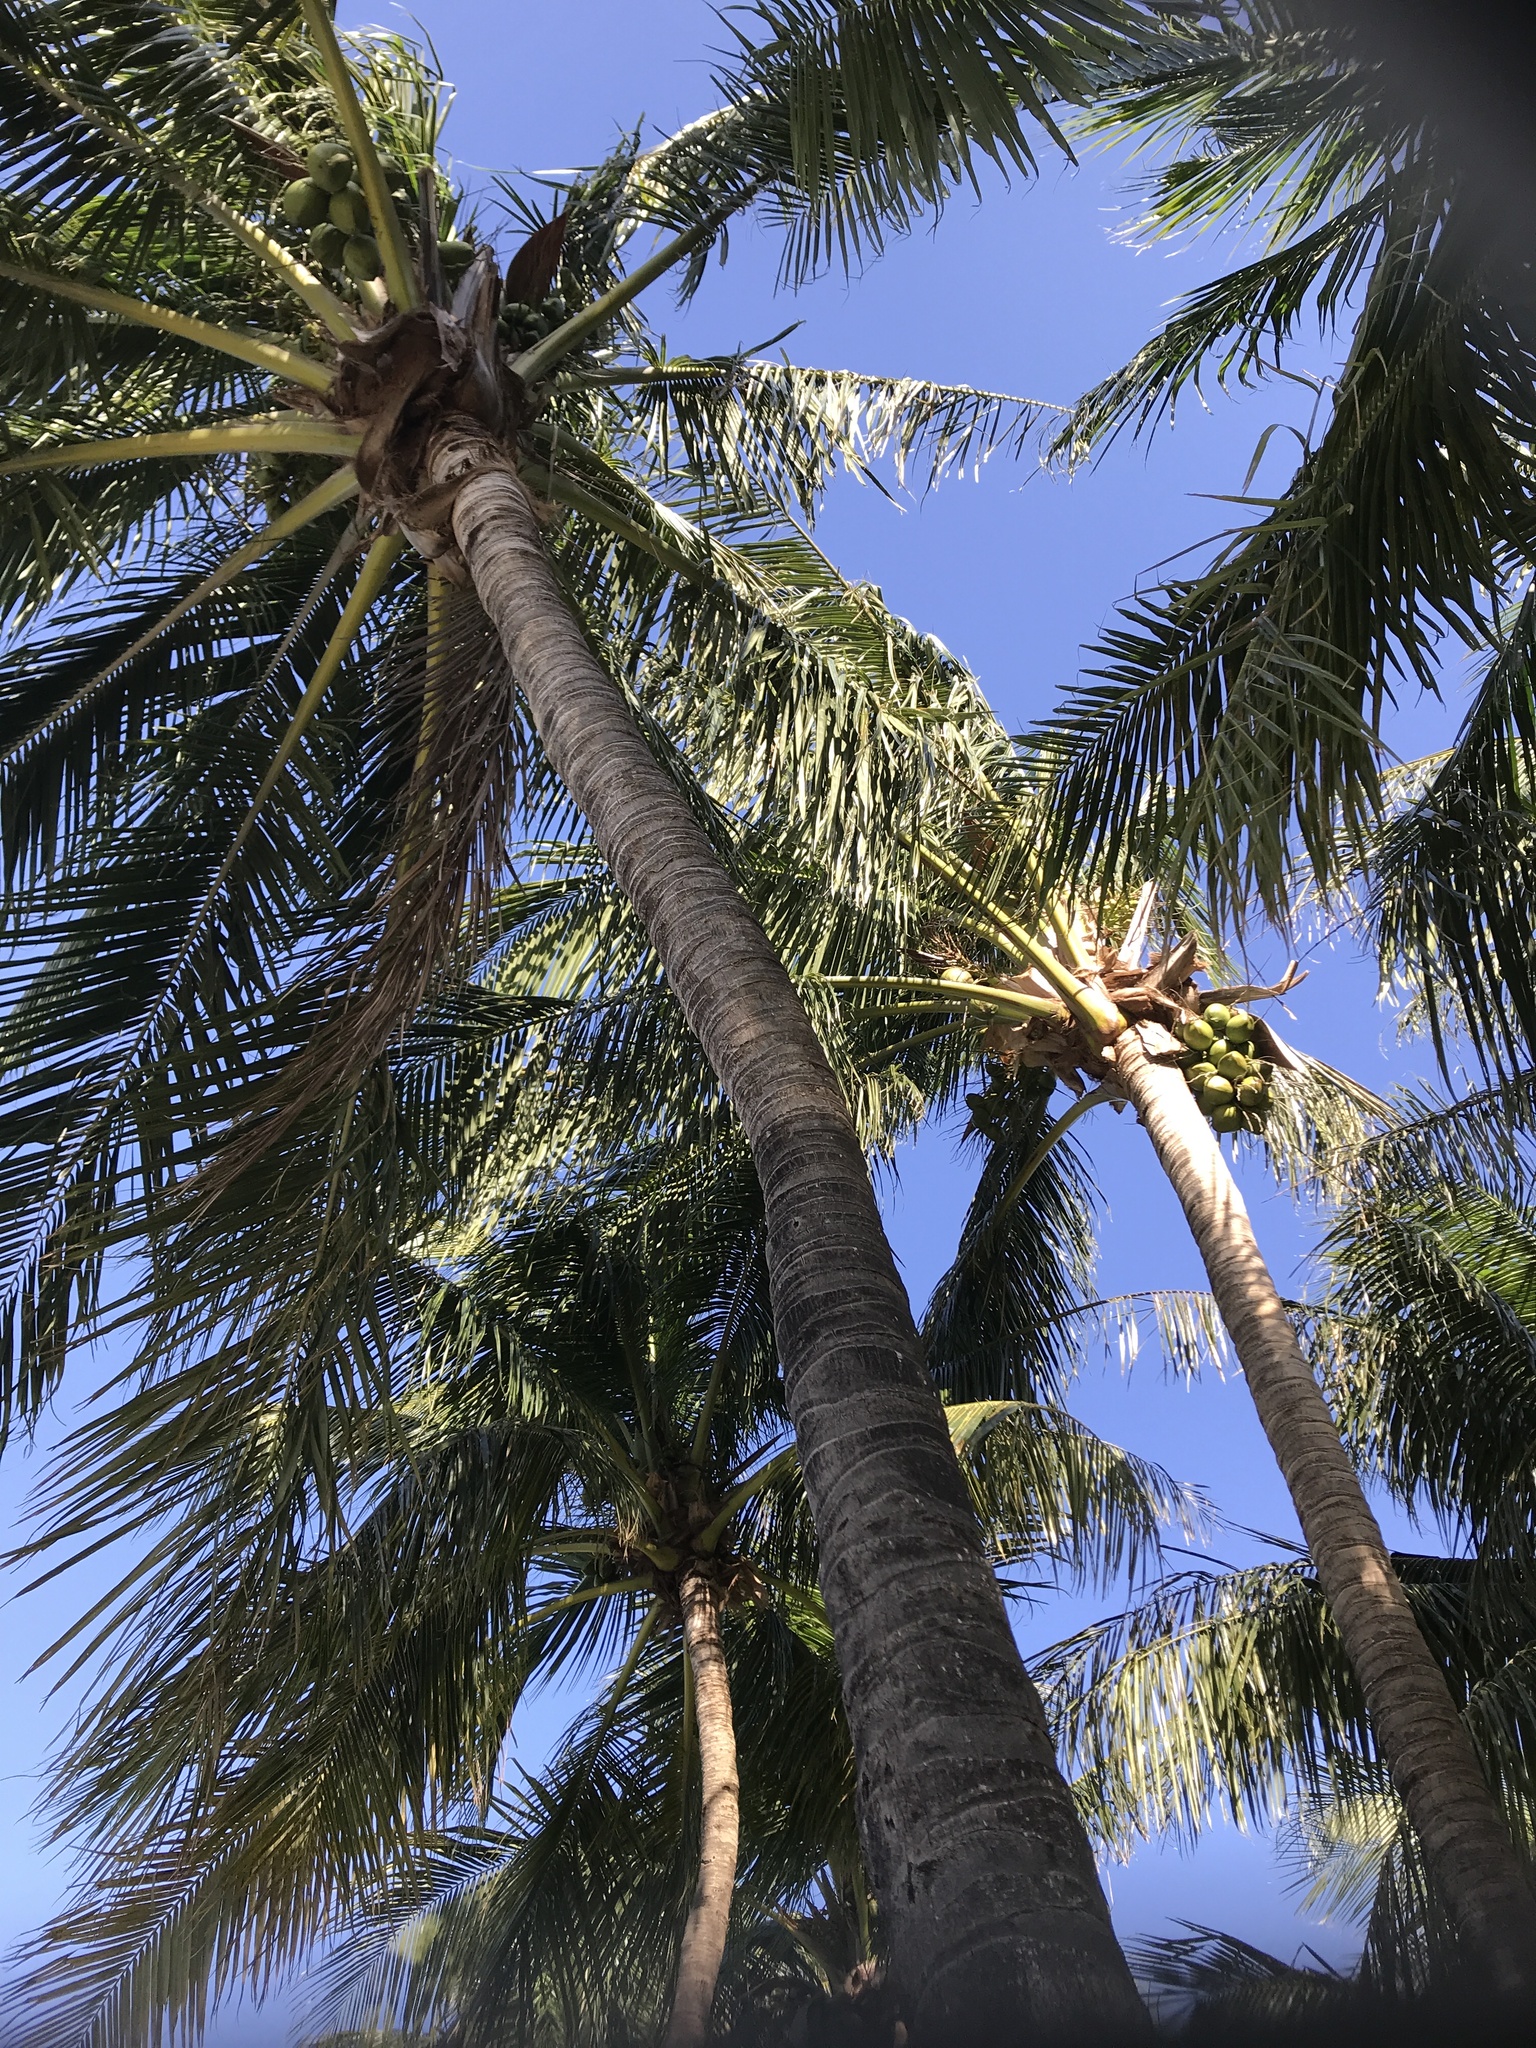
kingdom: Plantae
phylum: Tracheophyta
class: Liliopsida
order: Arecales
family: Arecaceae
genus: Cocos
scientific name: Cocos nucifera
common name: Coconut palm
